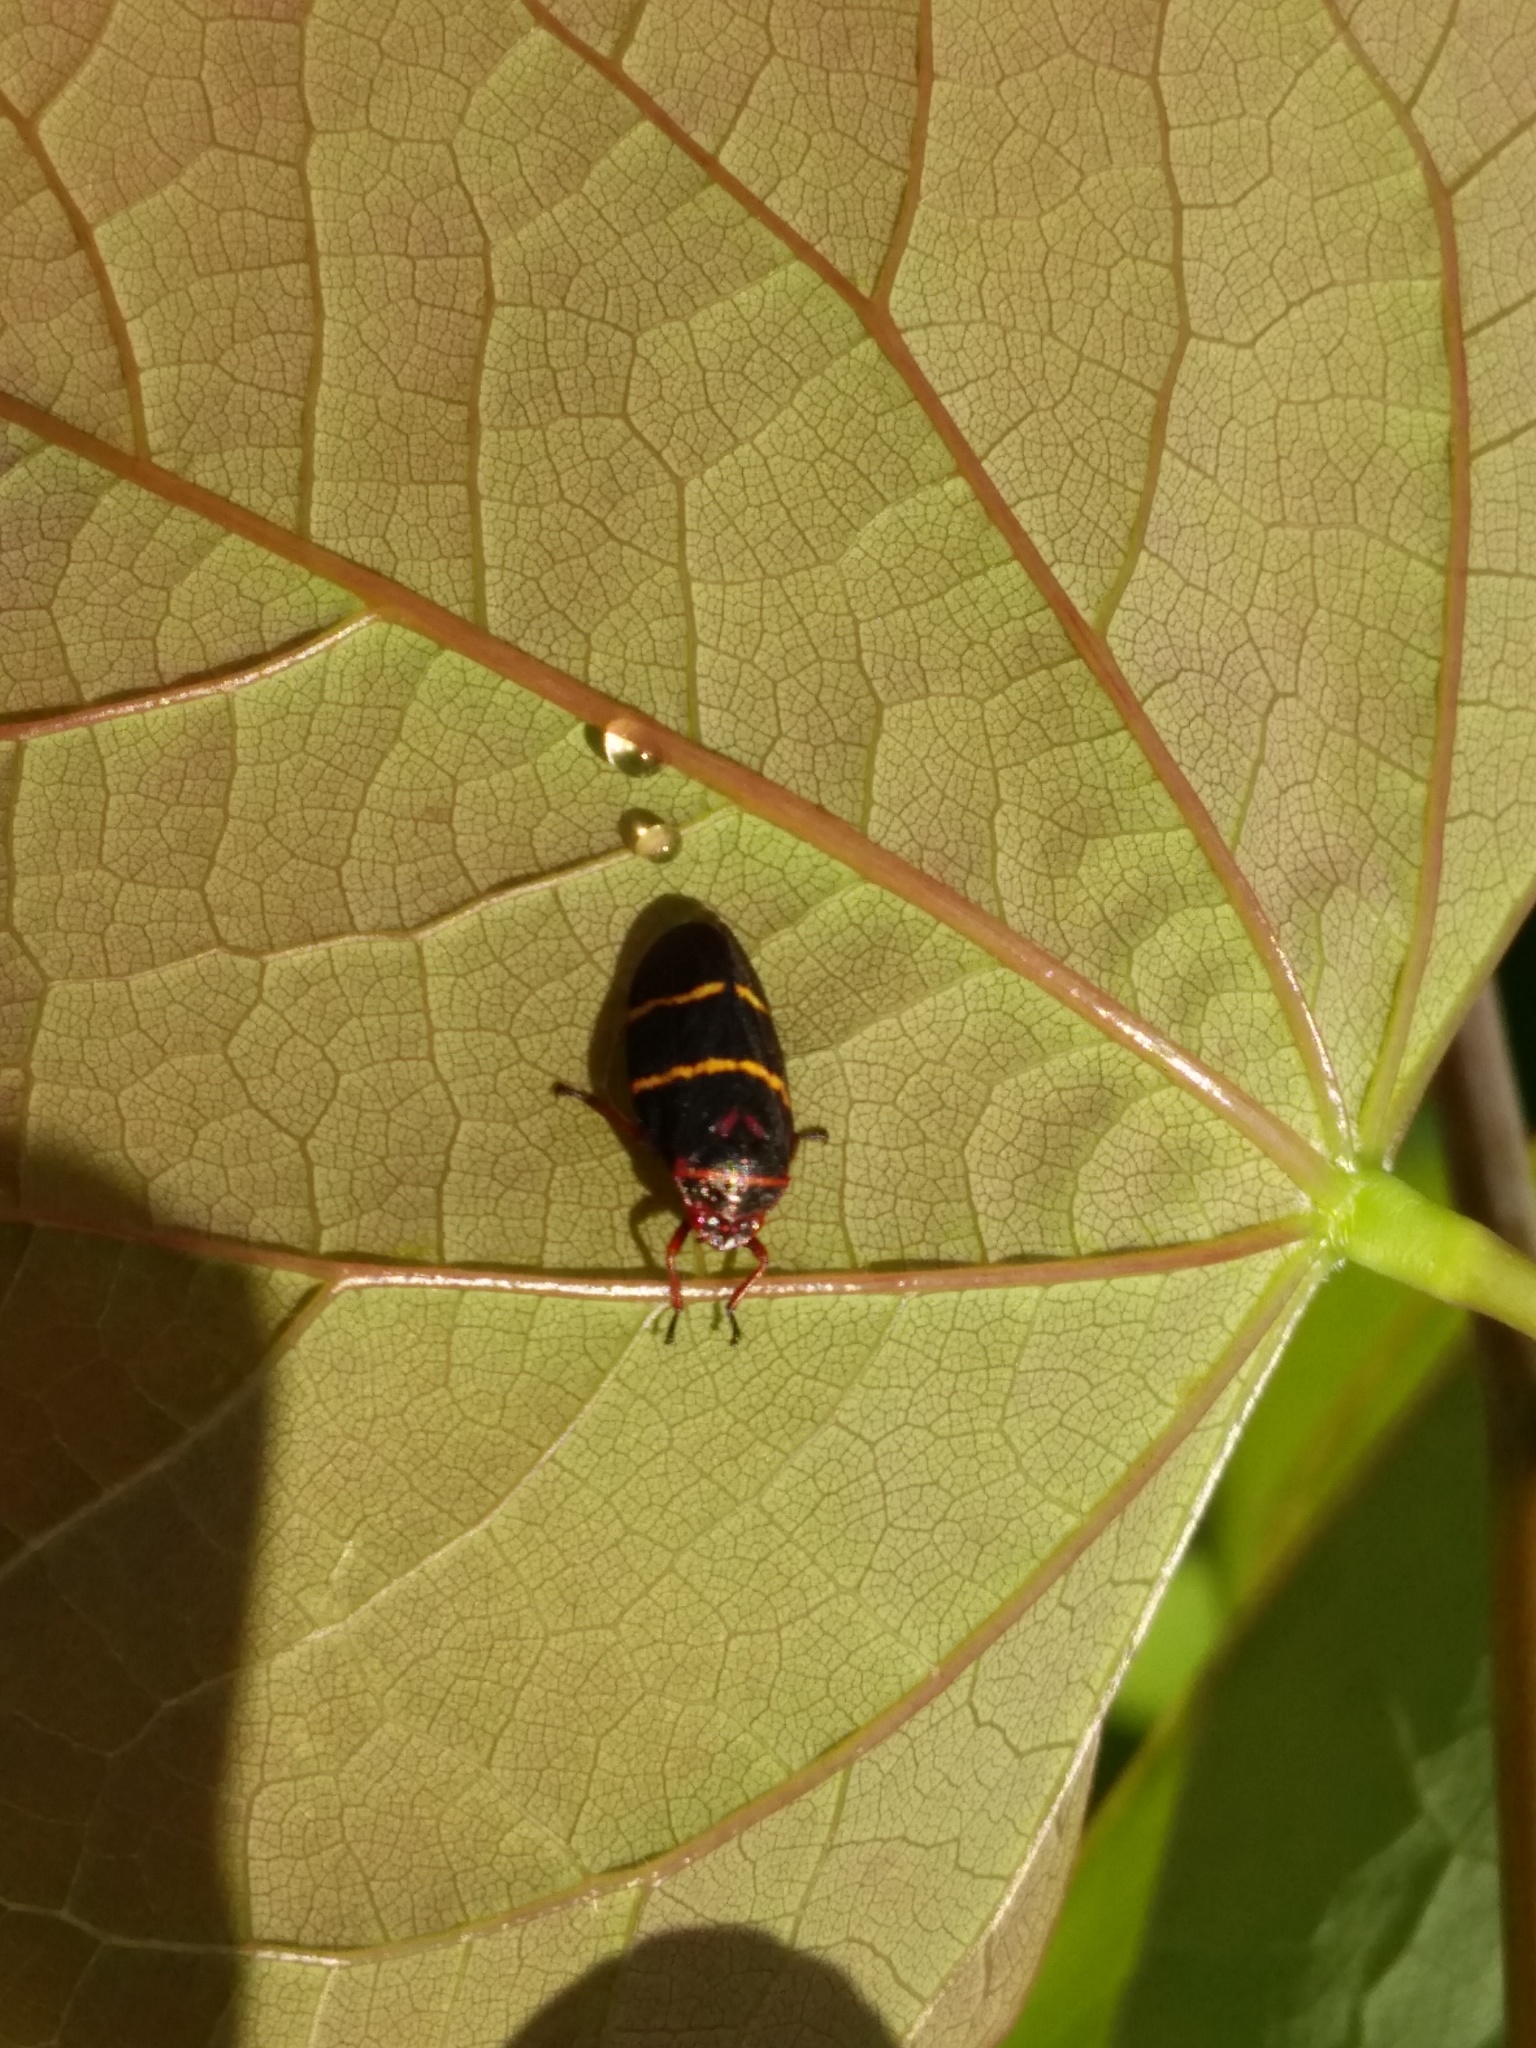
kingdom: Animalia
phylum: Arthropoda
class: Insecta
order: Hemiptera
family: Cercopidae
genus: Prosapia
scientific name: Prosapia bicincta
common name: Twolined spittlebug
